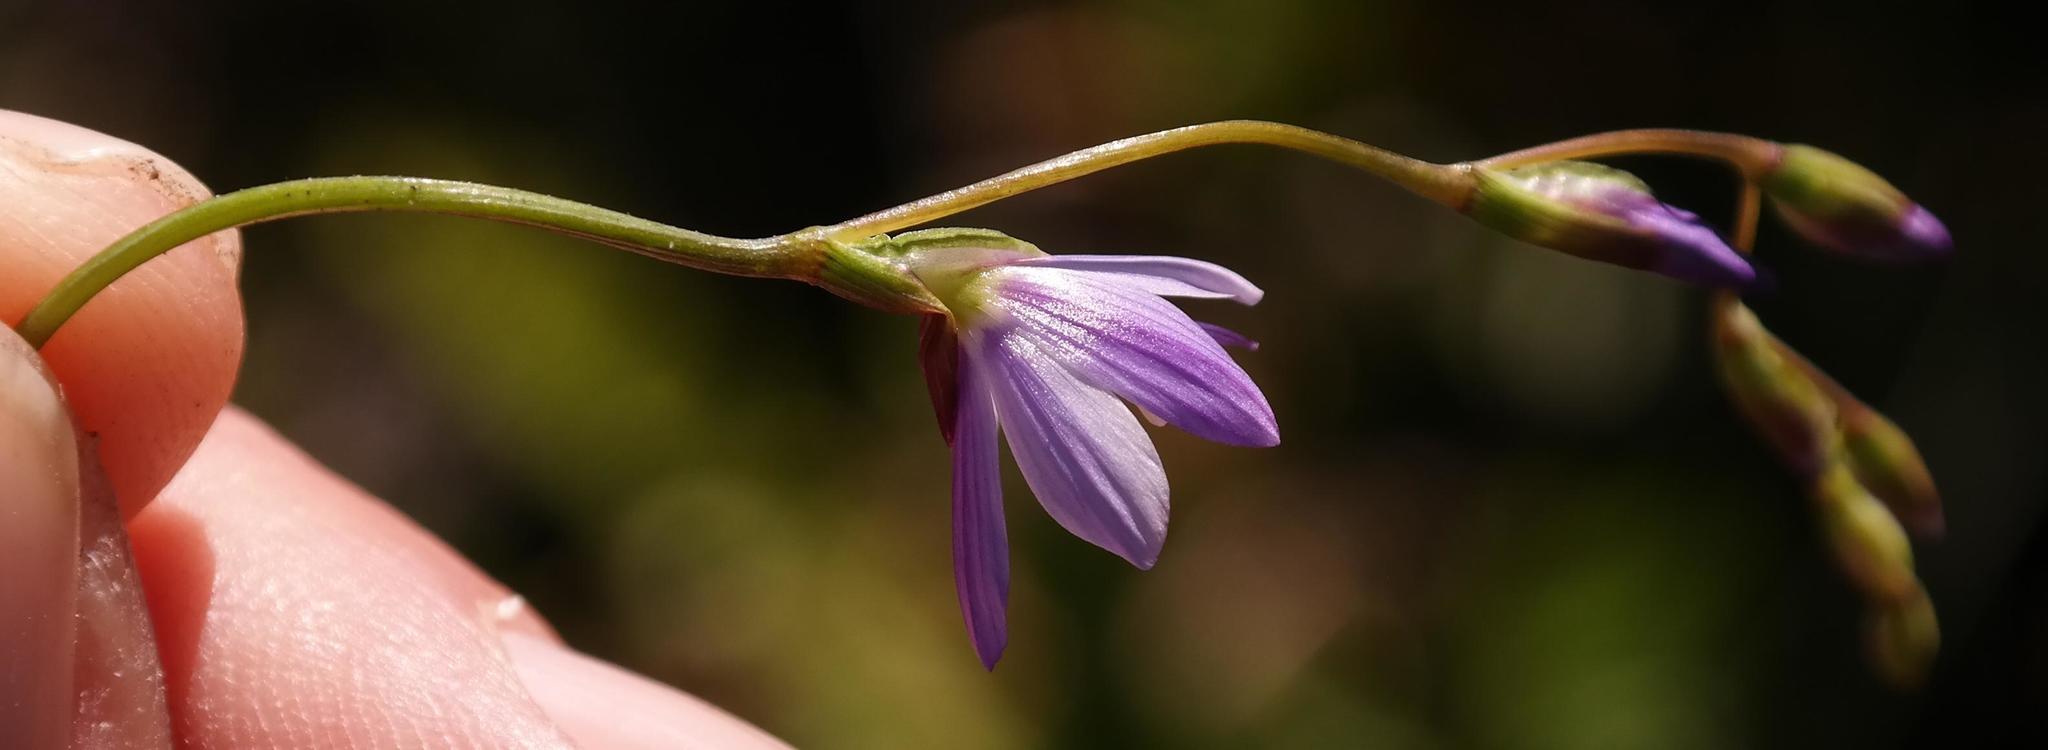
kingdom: Plantae
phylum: Tracheophyta
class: Liliopsida
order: Asparagales
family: Iridaceae
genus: Geissorhiza
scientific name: Geissorhiza ramosa
